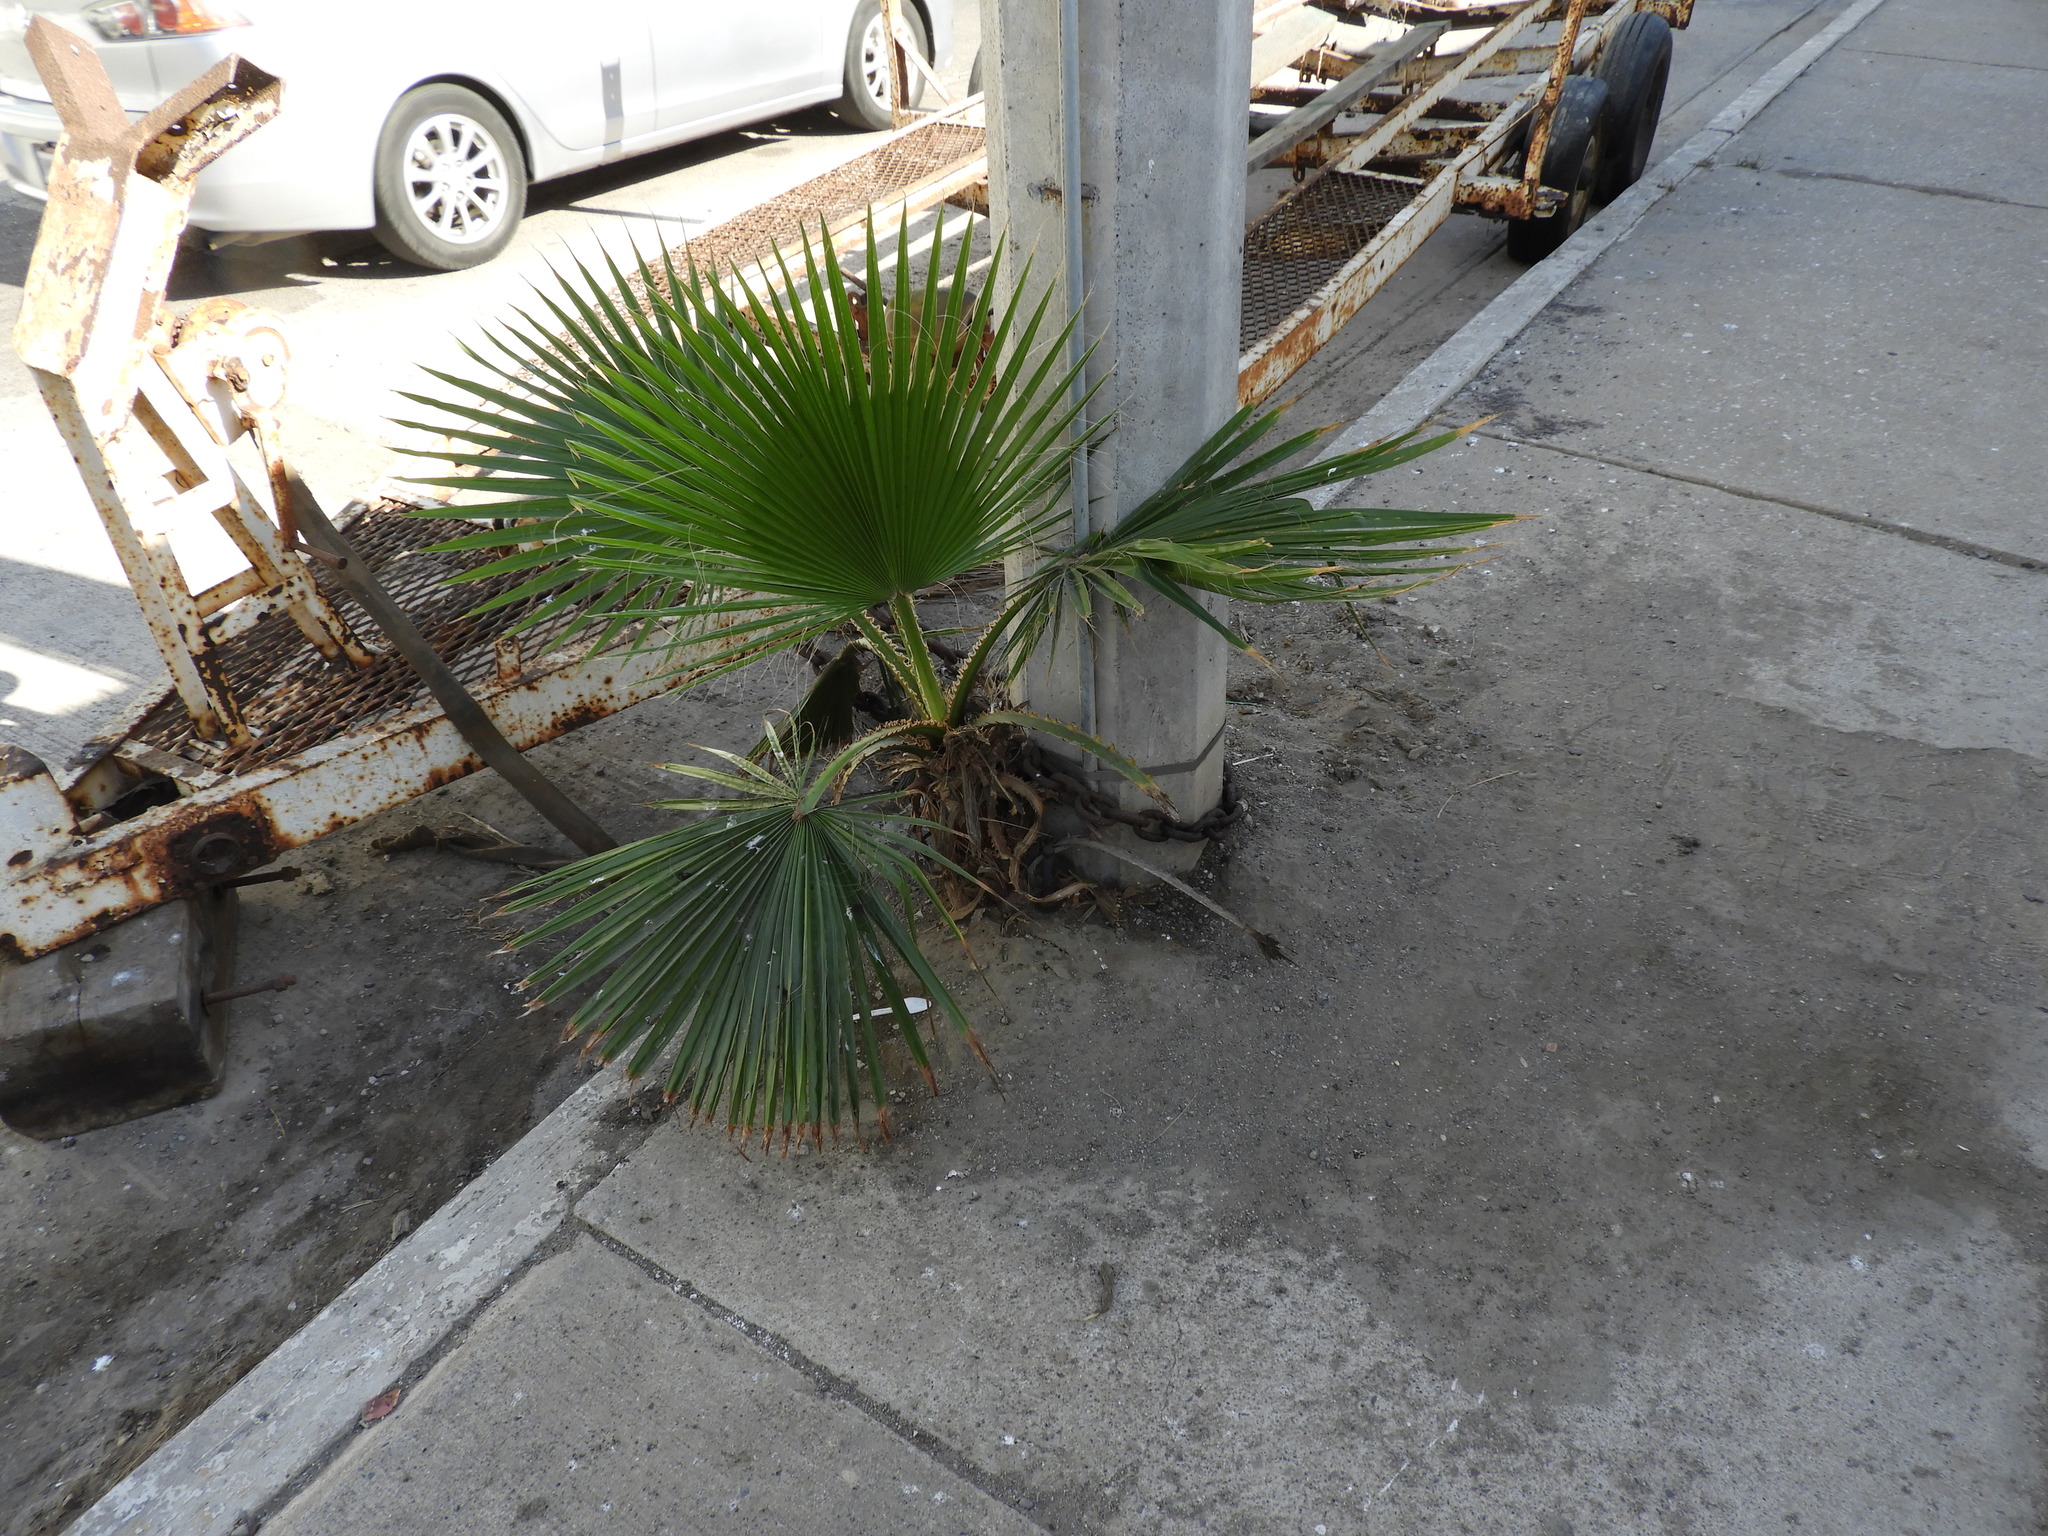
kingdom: Plantae
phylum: Tracheophyta
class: Liliopsida
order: Arecales
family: Arecaceae
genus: Washingtonia
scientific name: Washingtonia filifera
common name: California fan palm
